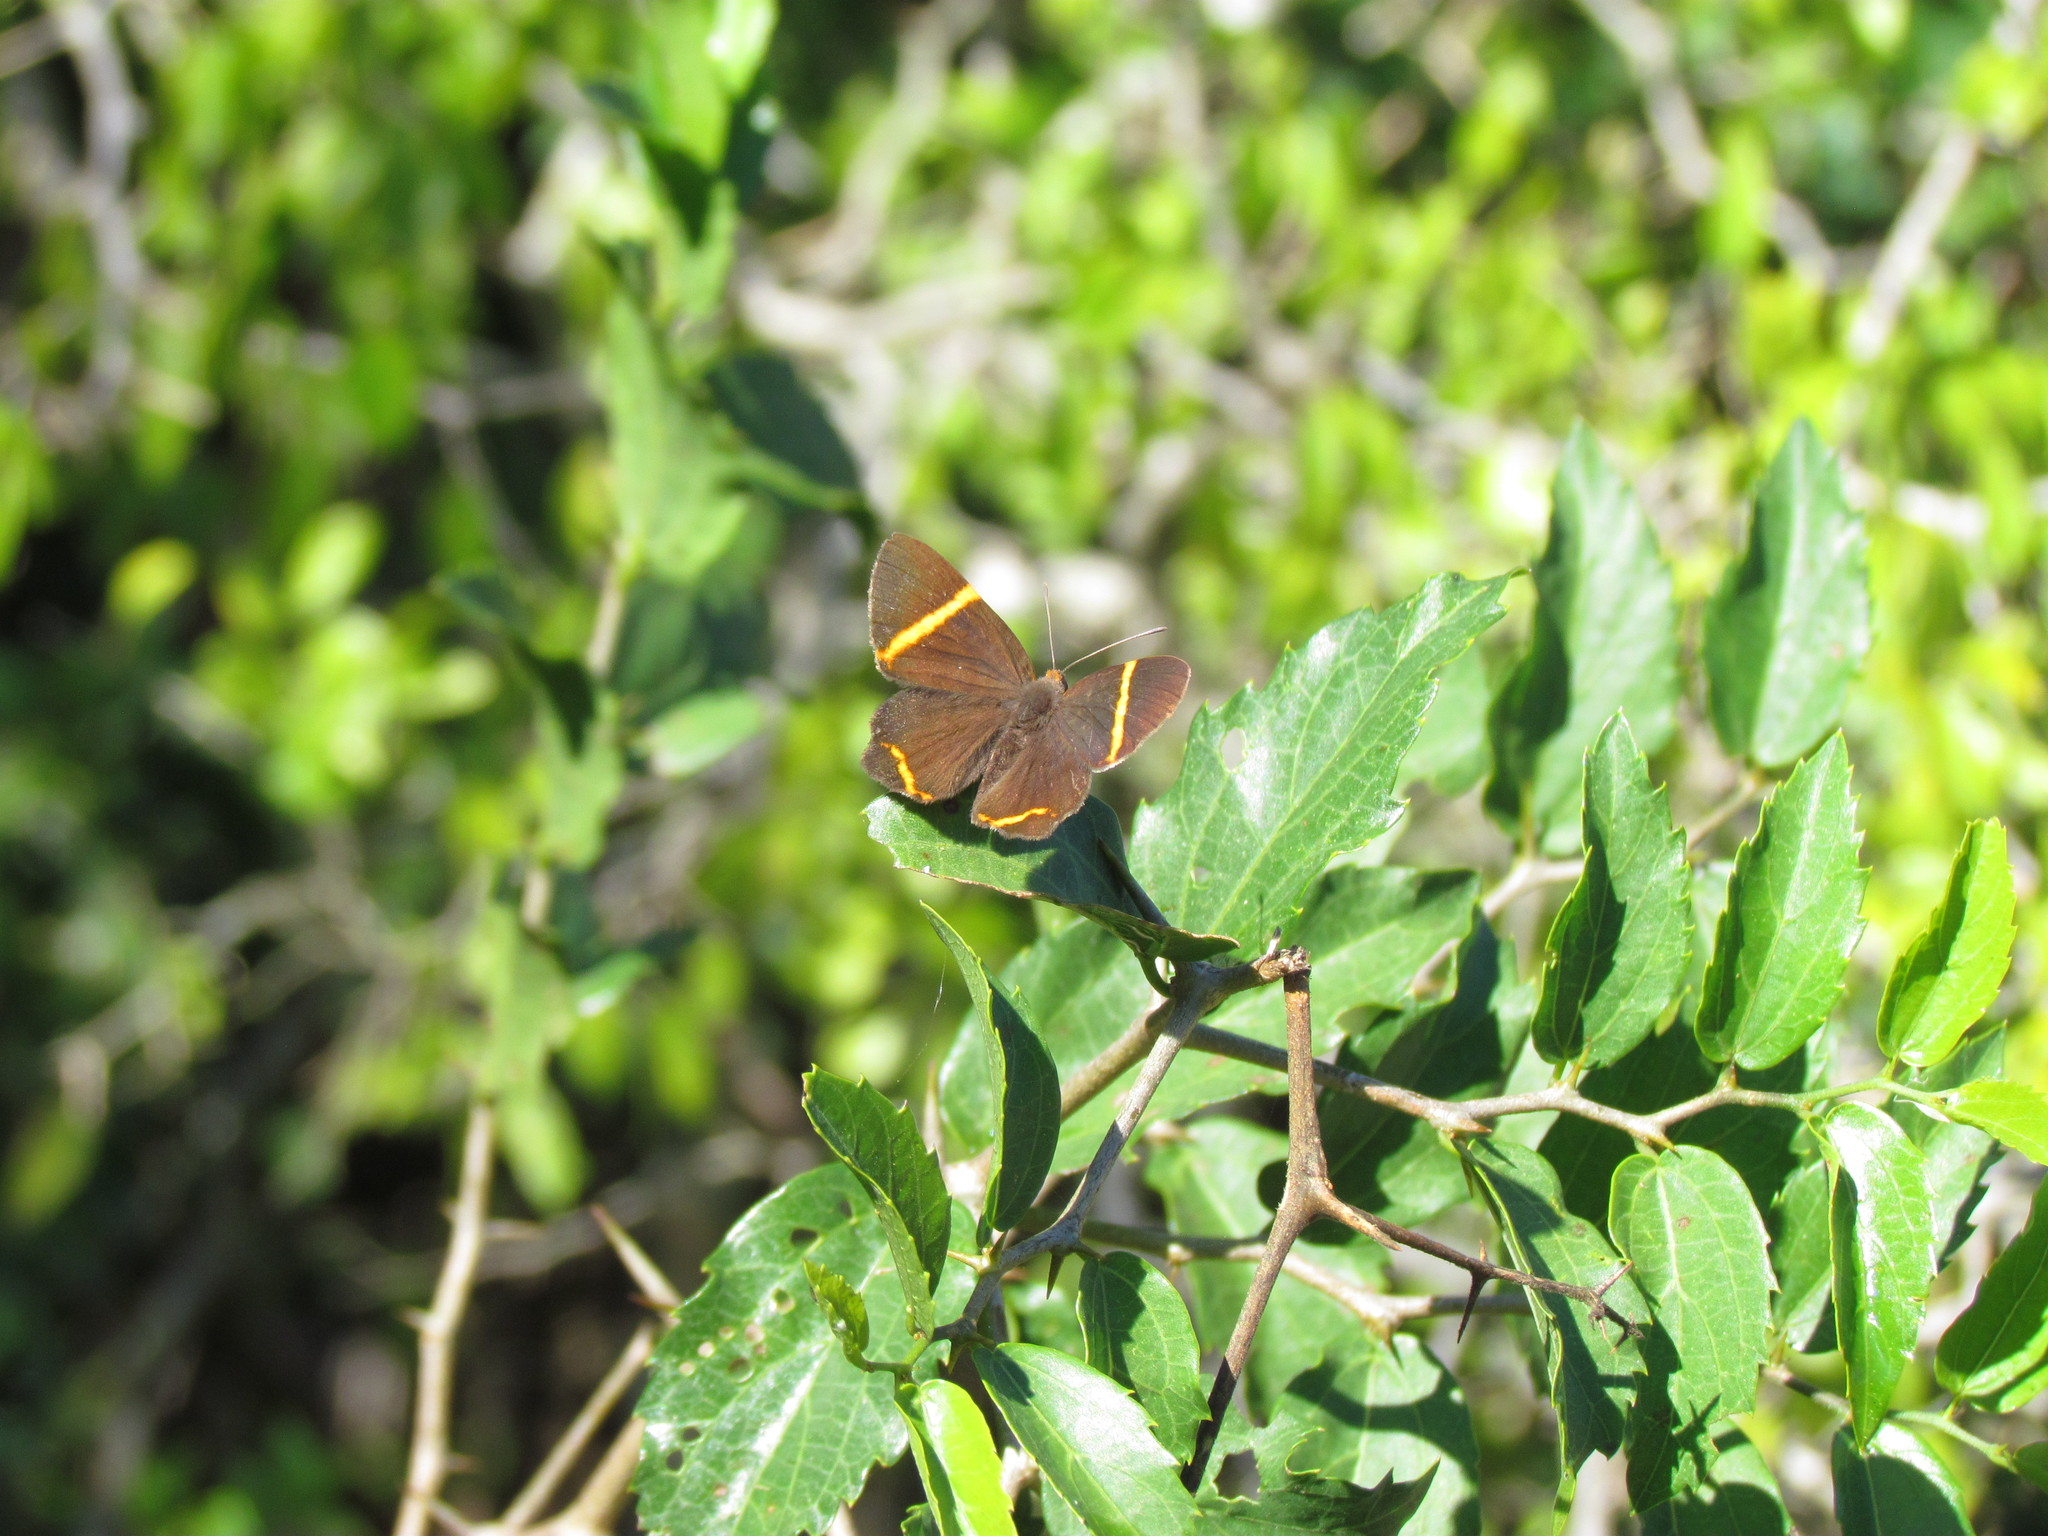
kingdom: Animalia
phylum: Arthropoda
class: Insecta
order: Lepidoptera
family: Riodinidae
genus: Riodina
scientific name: Riodina lysippoides
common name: Little dancer metalmark
